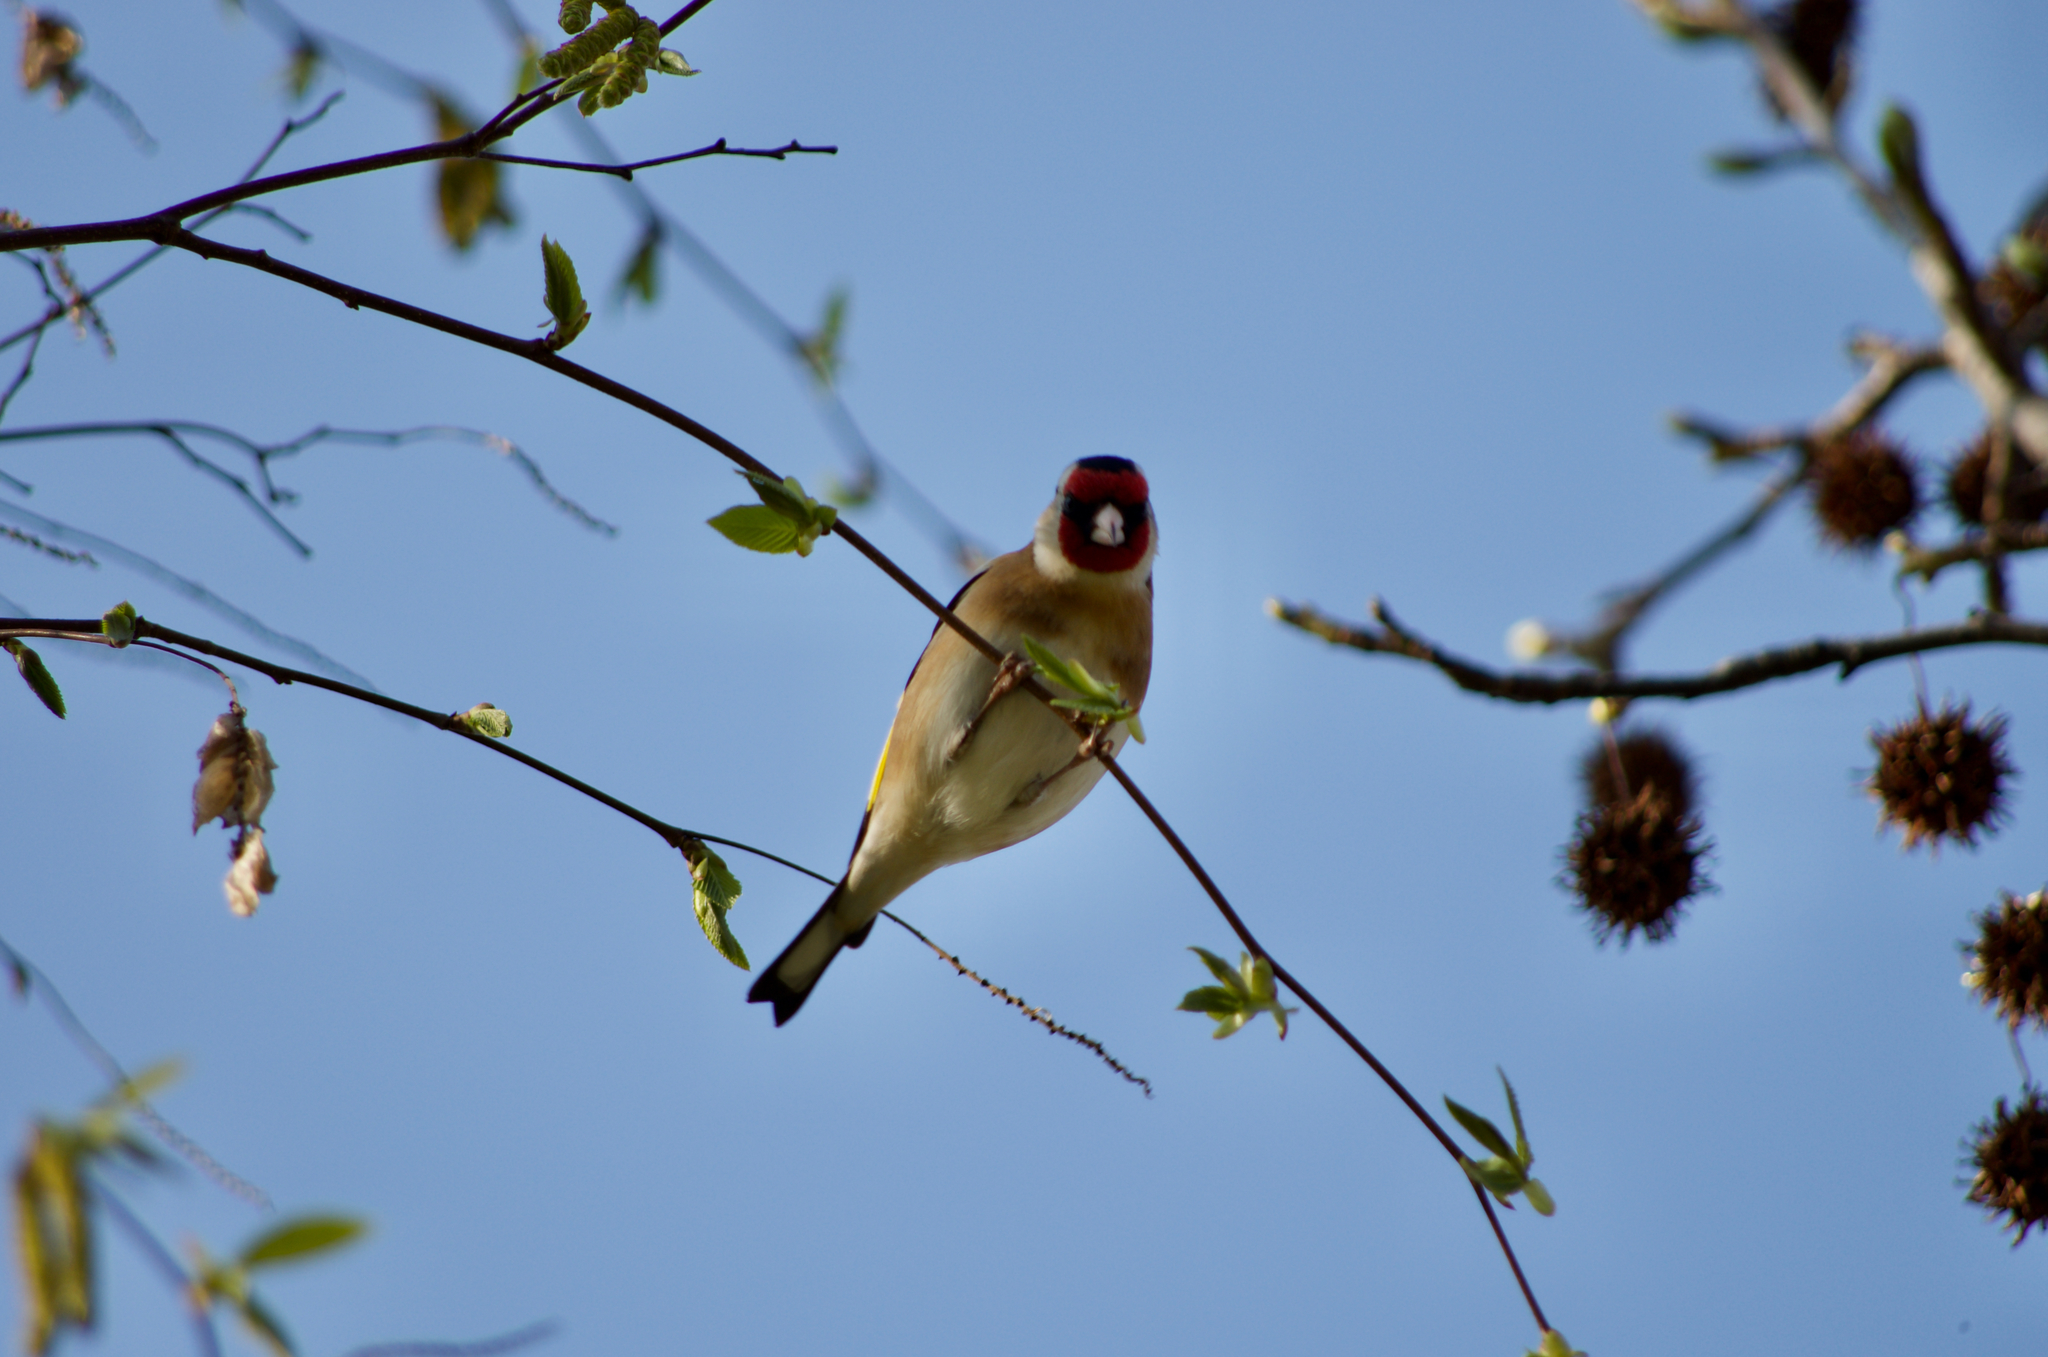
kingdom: Animalia
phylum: Chordata
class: Aves
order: Passeriformes
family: Fringillidae
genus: Carduelis
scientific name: Carduelis carduelis
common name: European goldfinch
